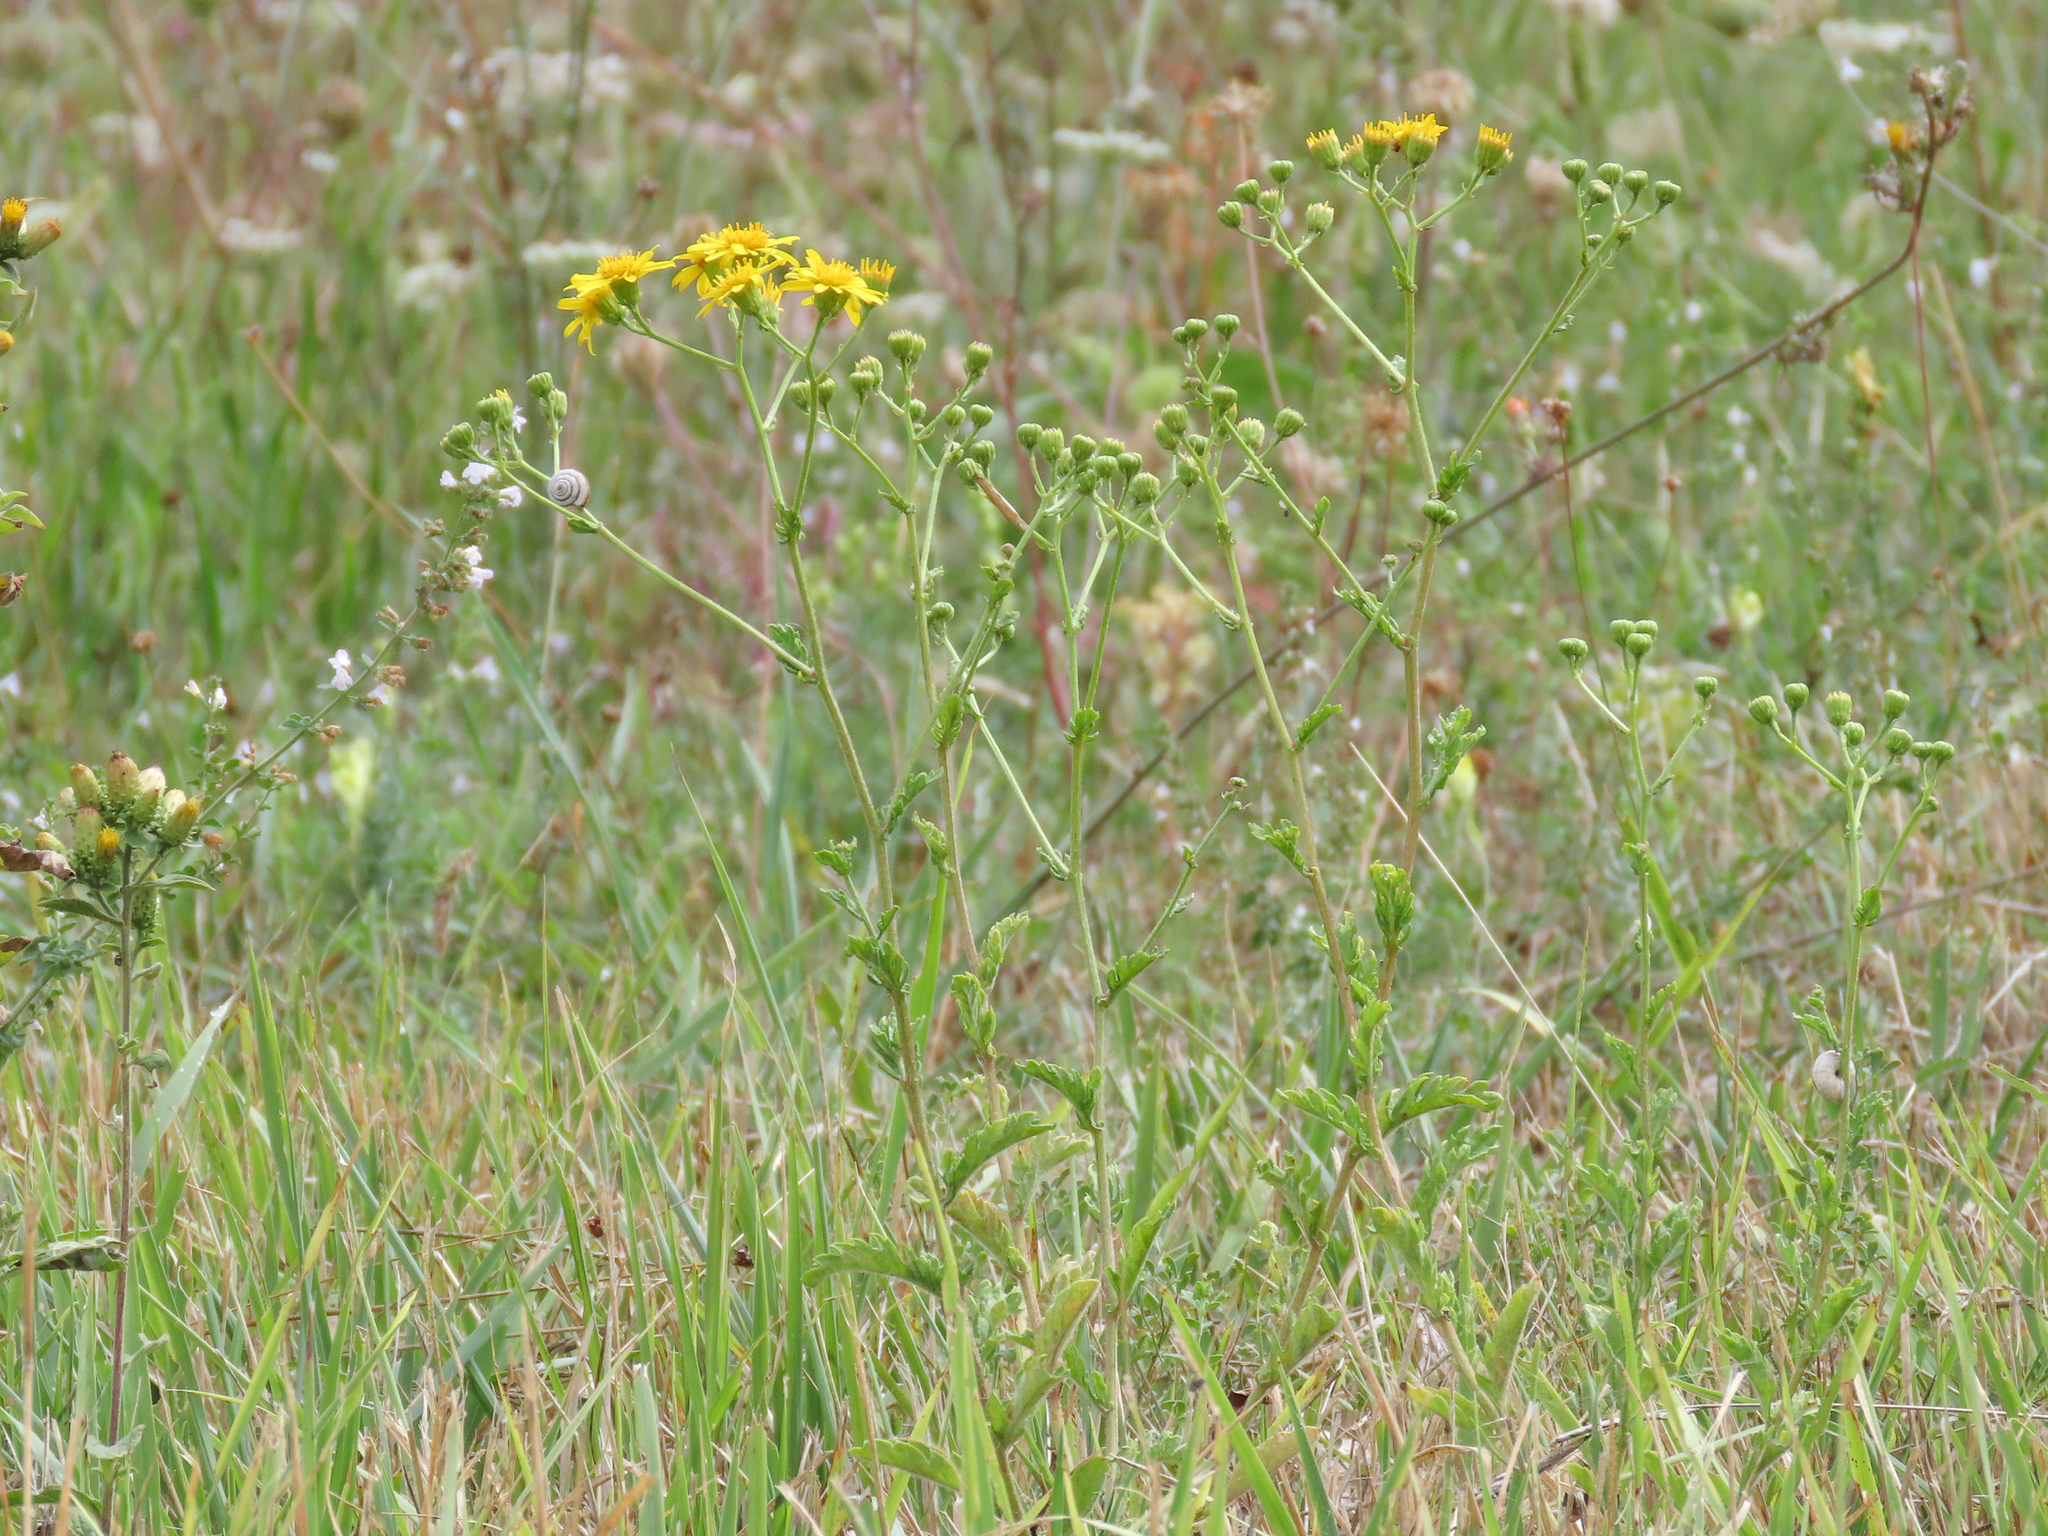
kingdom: Plantae
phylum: Tracheophyta
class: Magnoliopsida
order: Asterales
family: Asteraceae
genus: Jacobaea
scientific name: Jacobaea erucifolia
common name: Hoary ragwort
